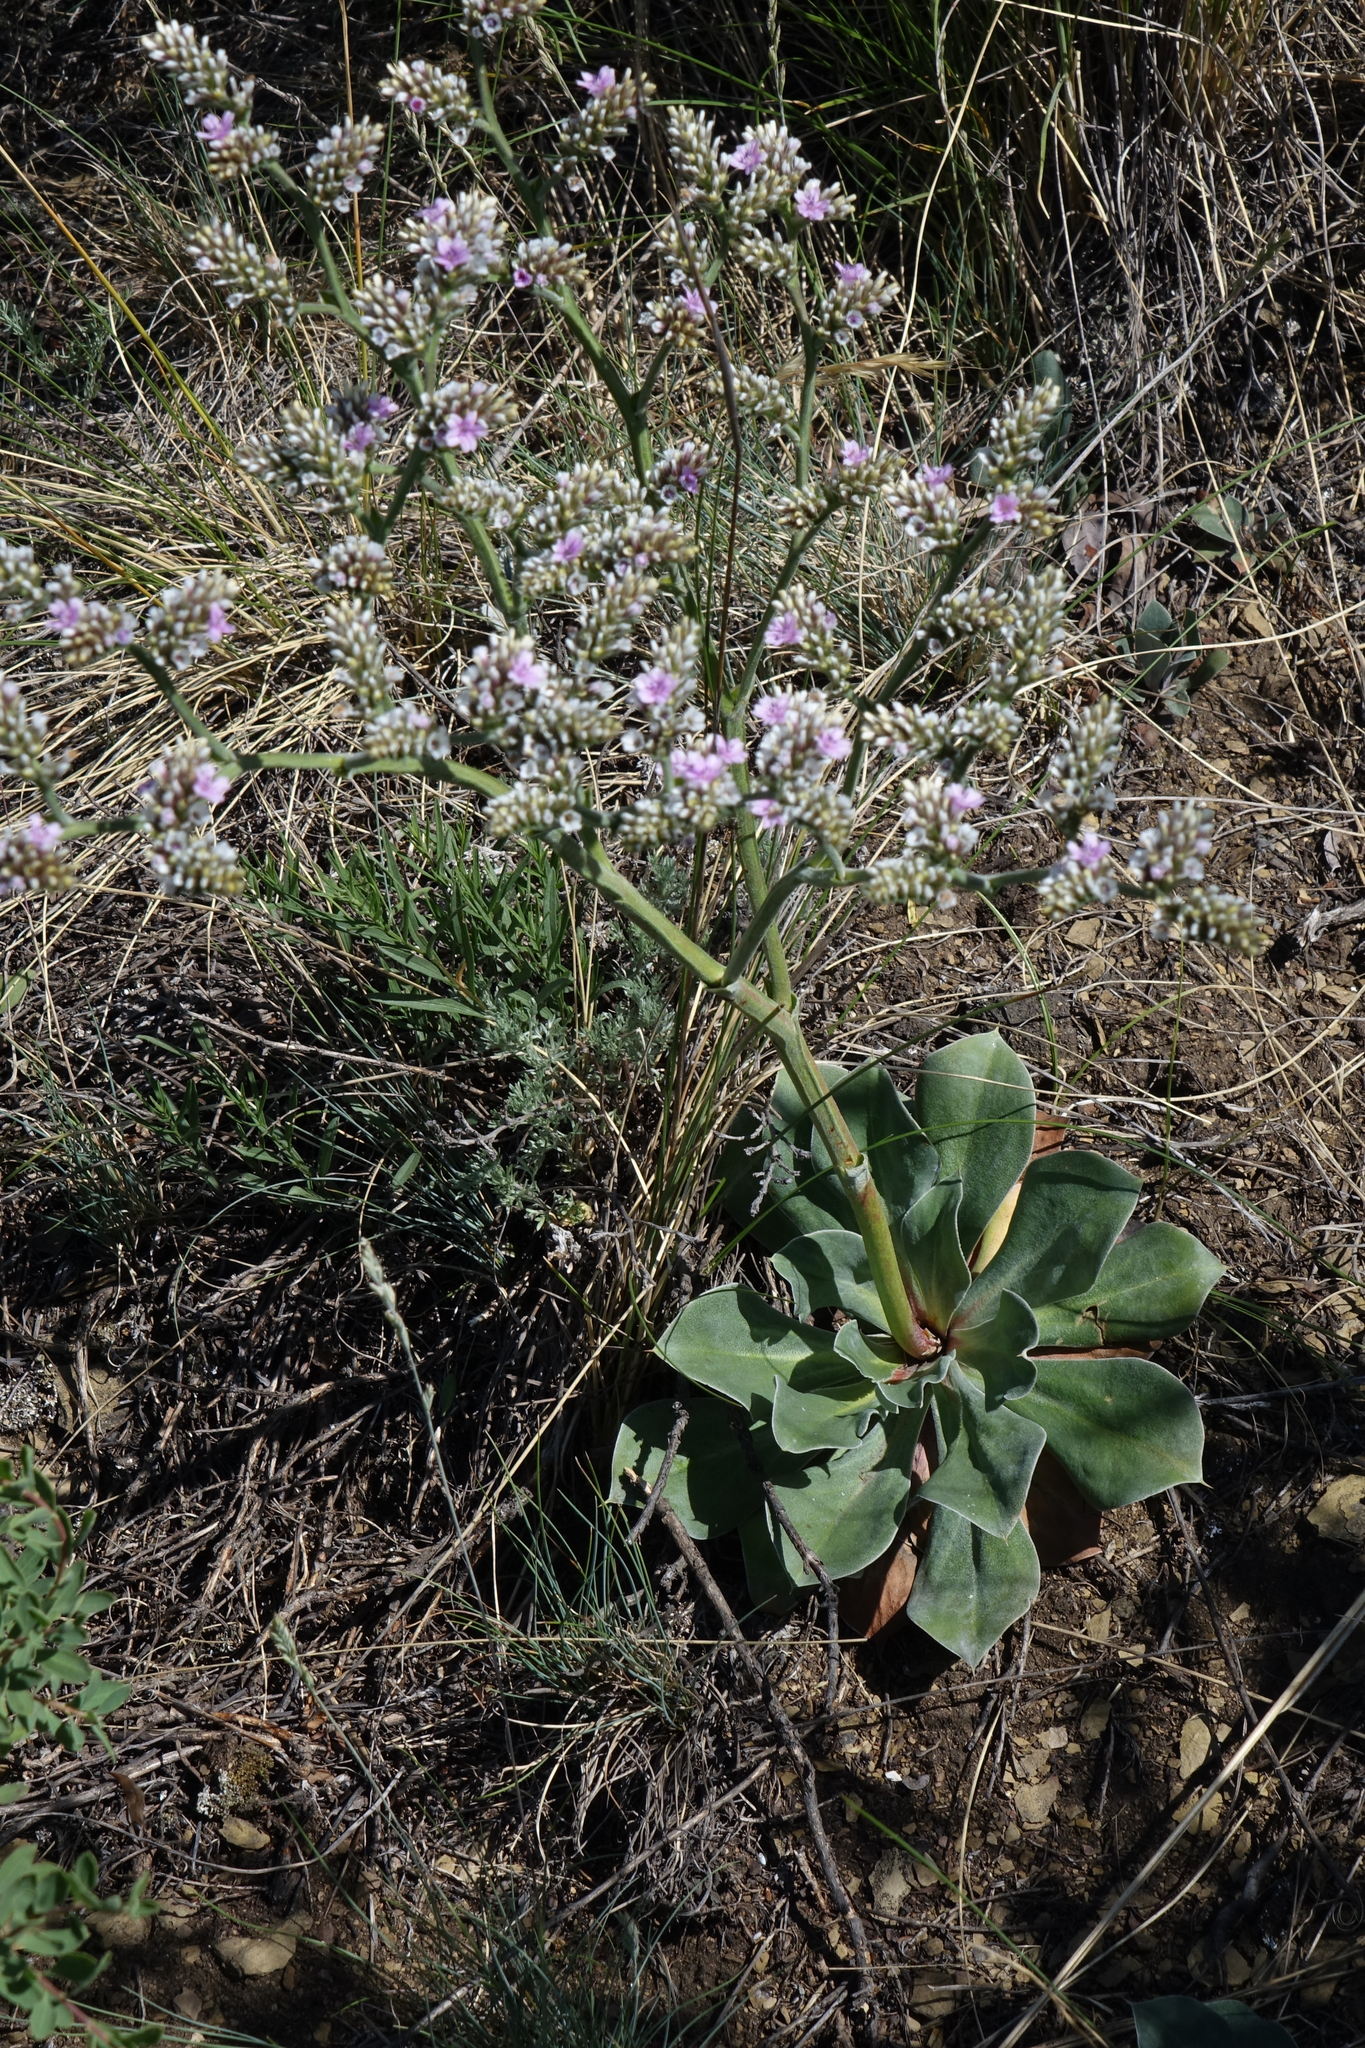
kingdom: Plantae
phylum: Tracheophyta
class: Magnoliopsida
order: Caryophyllales
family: Plumbaginaceae
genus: Goniolimon
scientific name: Goniolimon speciosum
